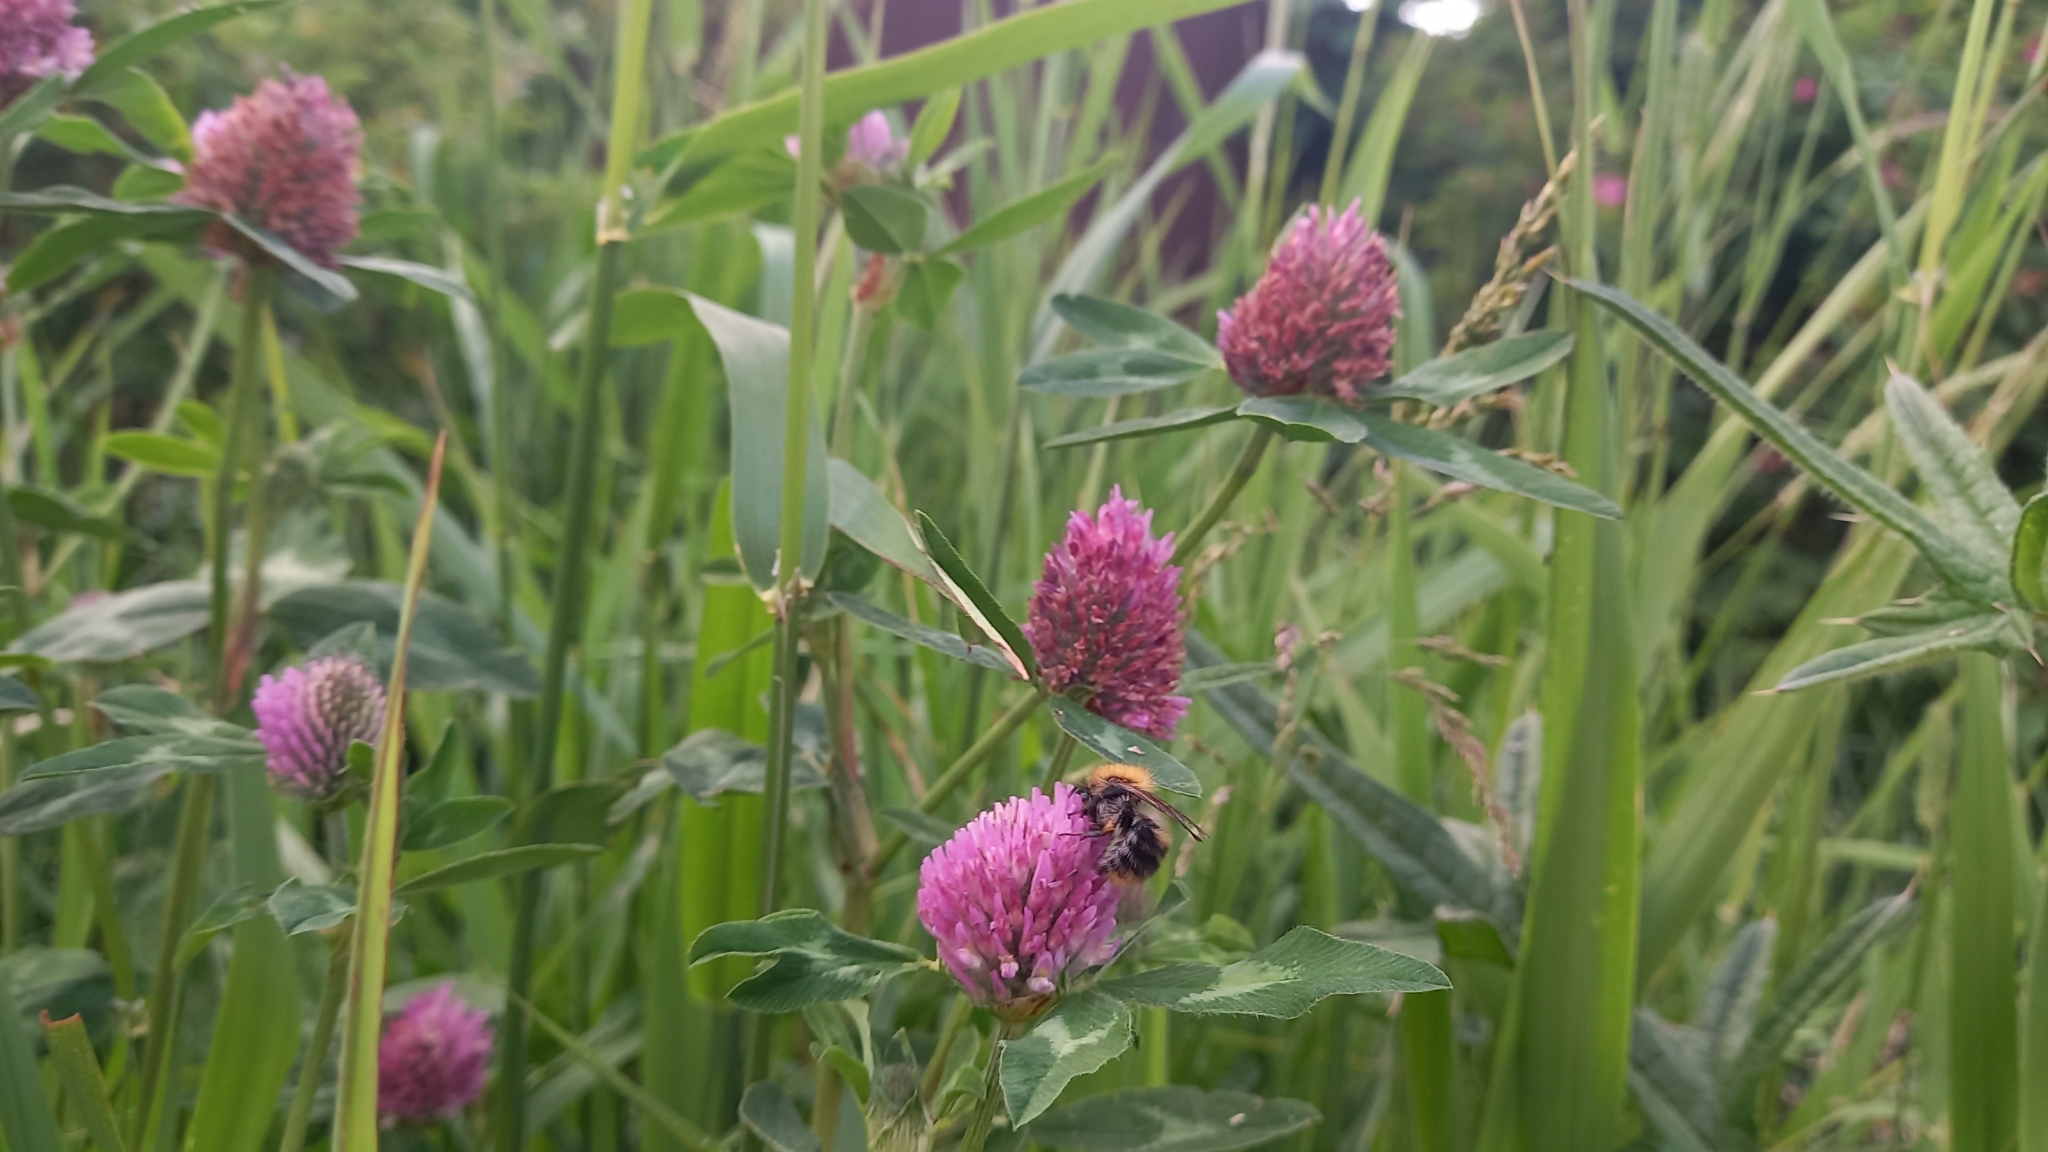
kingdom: Animalia
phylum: Arthropoda
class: Insecta
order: Hymenoptera
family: Apidae
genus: Bombus
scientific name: Bombus pascuorum
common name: Common carder bee
